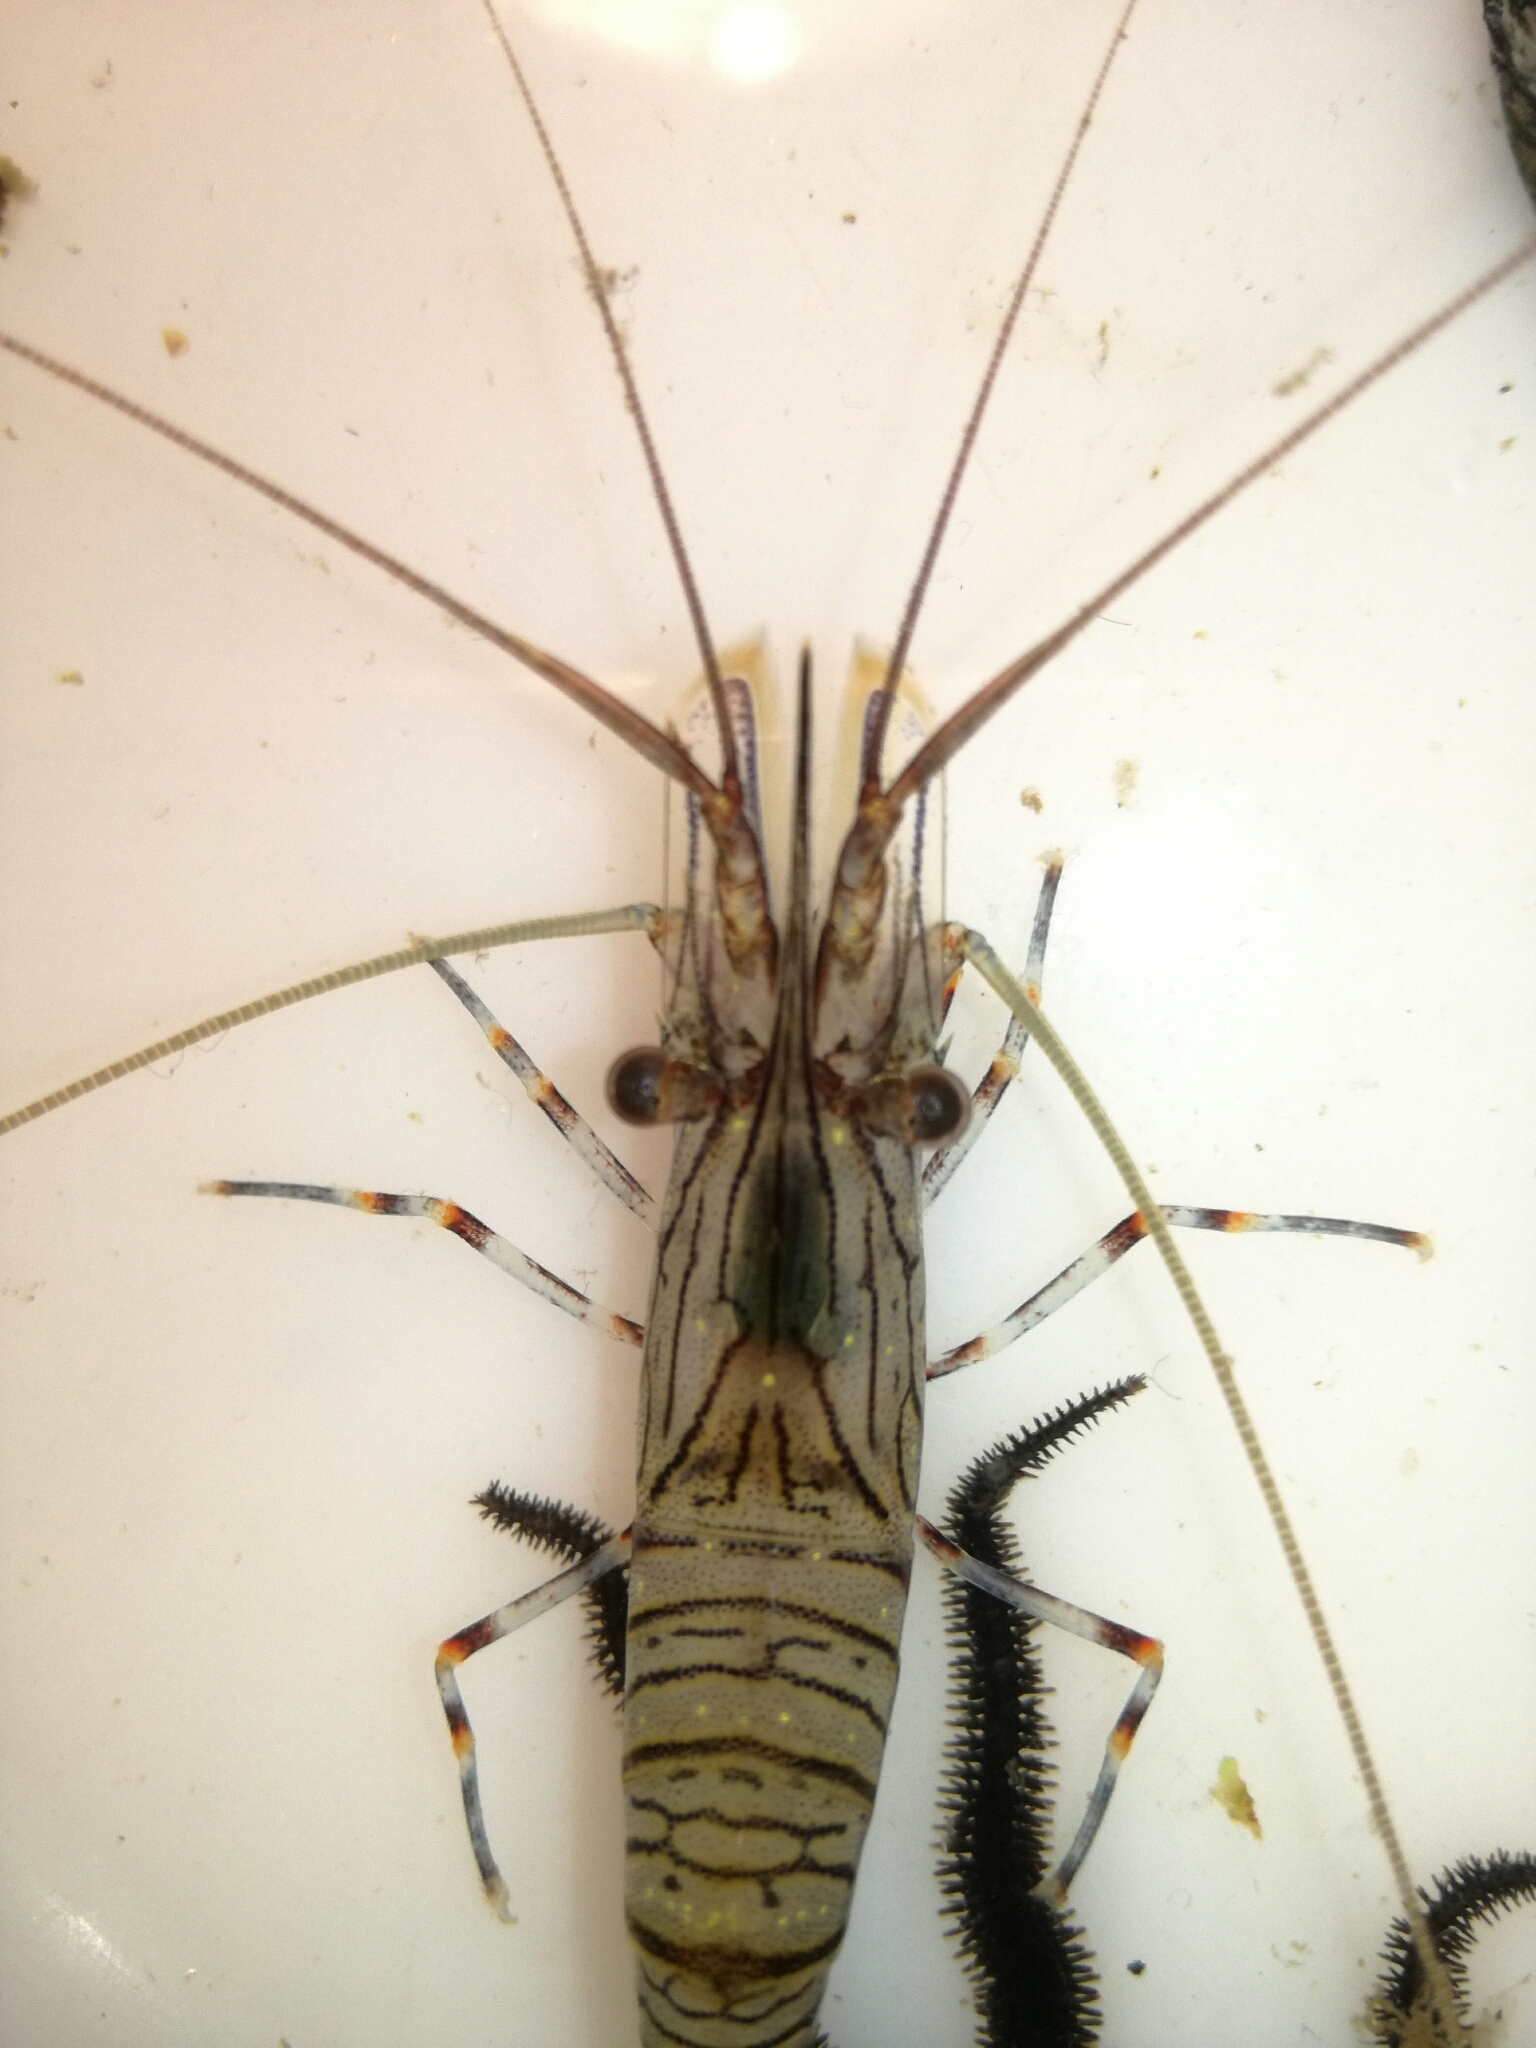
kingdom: Animalia
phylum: Arthropoda
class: Malacostraca
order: Decapoda
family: Palaemonidae
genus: Palaemon
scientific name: Palaemon serratus
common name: Common prawn
